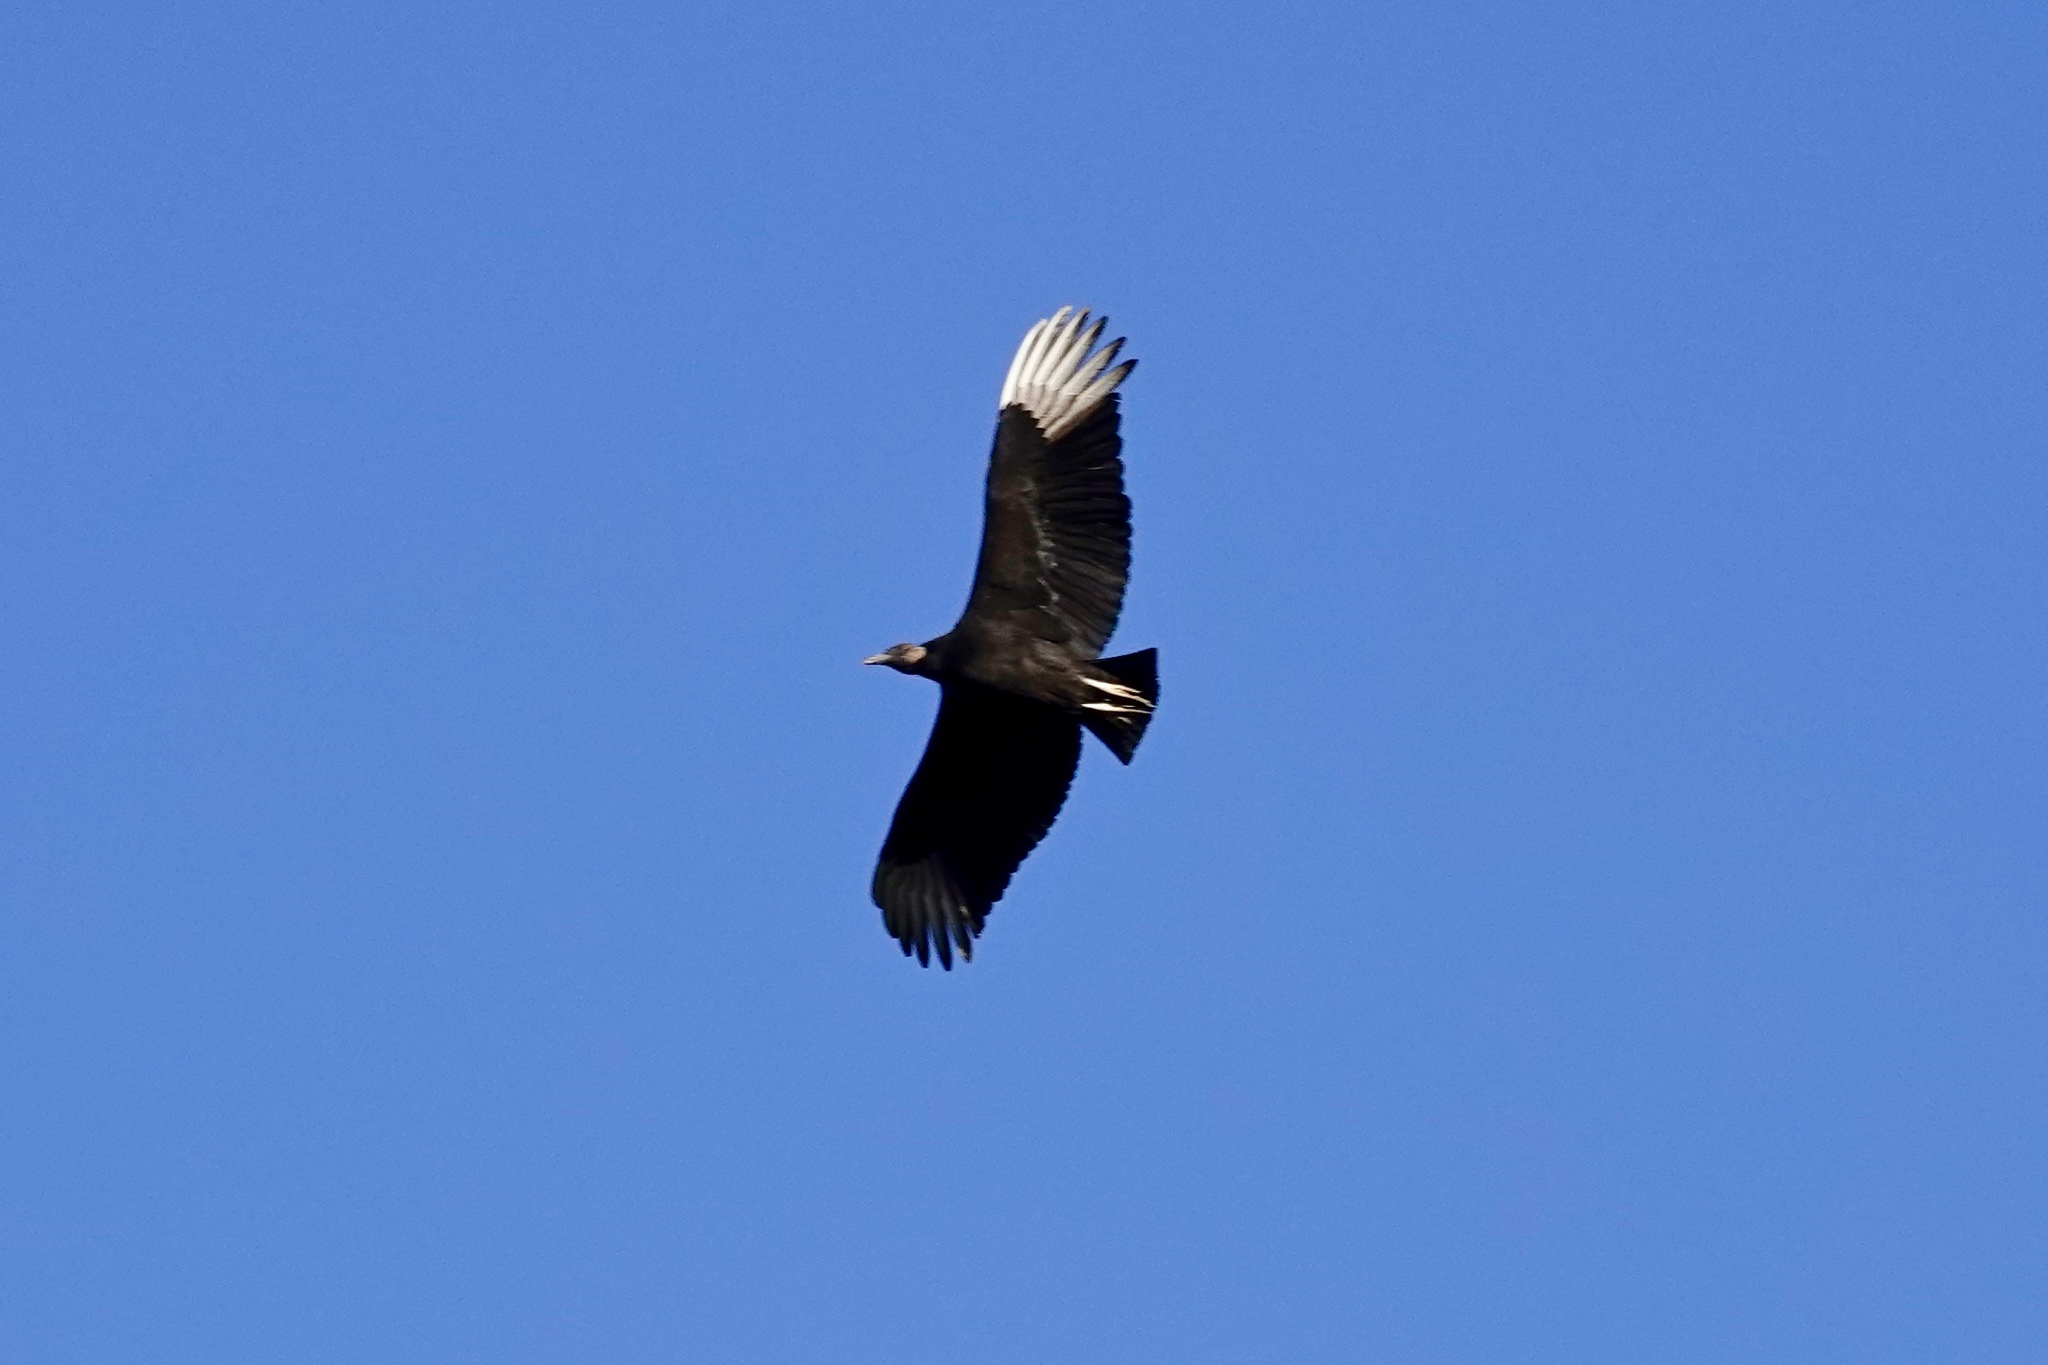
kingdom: Animalia
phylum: Chordata
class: Aves
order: Accipitriformes
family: Cathartidae
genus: Coragyps
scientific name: Coragyps atratus
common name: Black vulture
